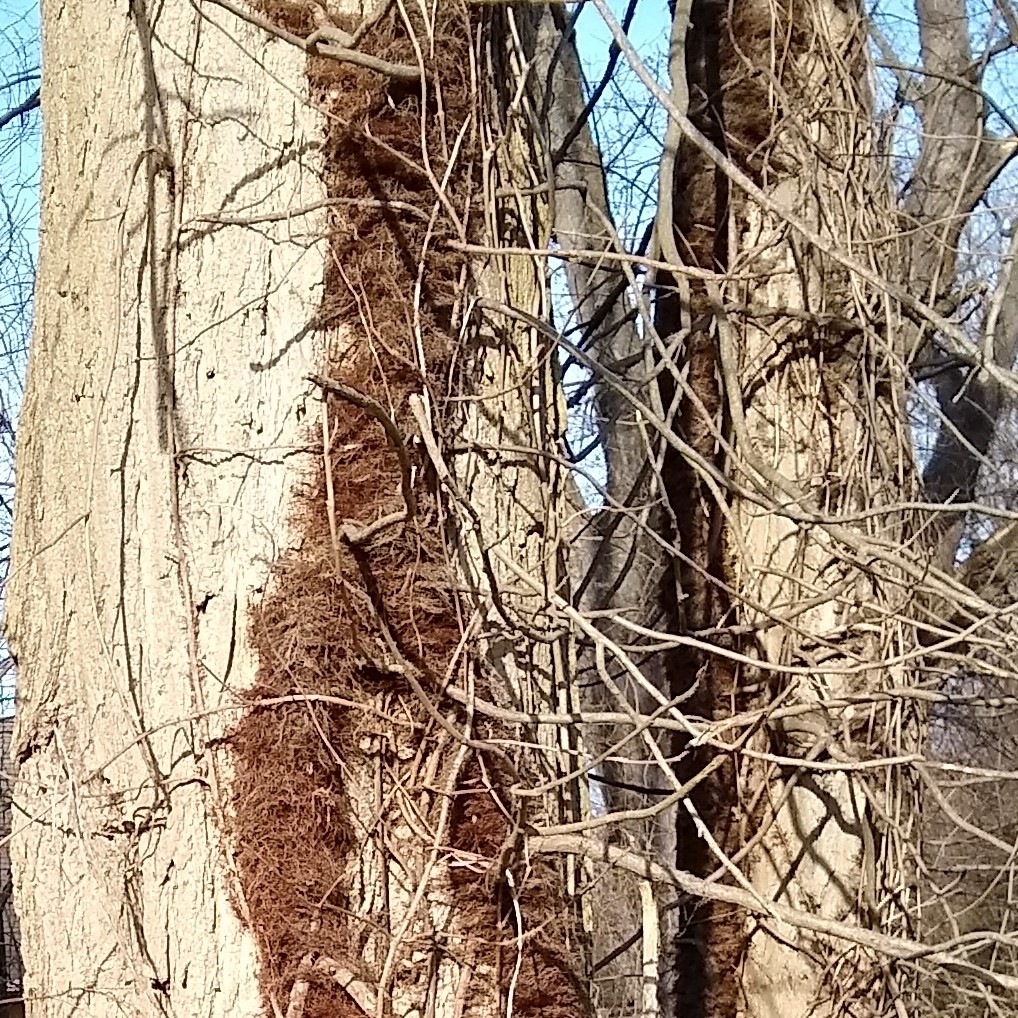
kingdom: Plantae
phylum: Tracheophyta
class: Magnoliopsida
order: Sapindales
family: Anacardiaceae
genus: Toxicodendron
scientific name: Toxicodendron radicans
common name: Poison ivy
